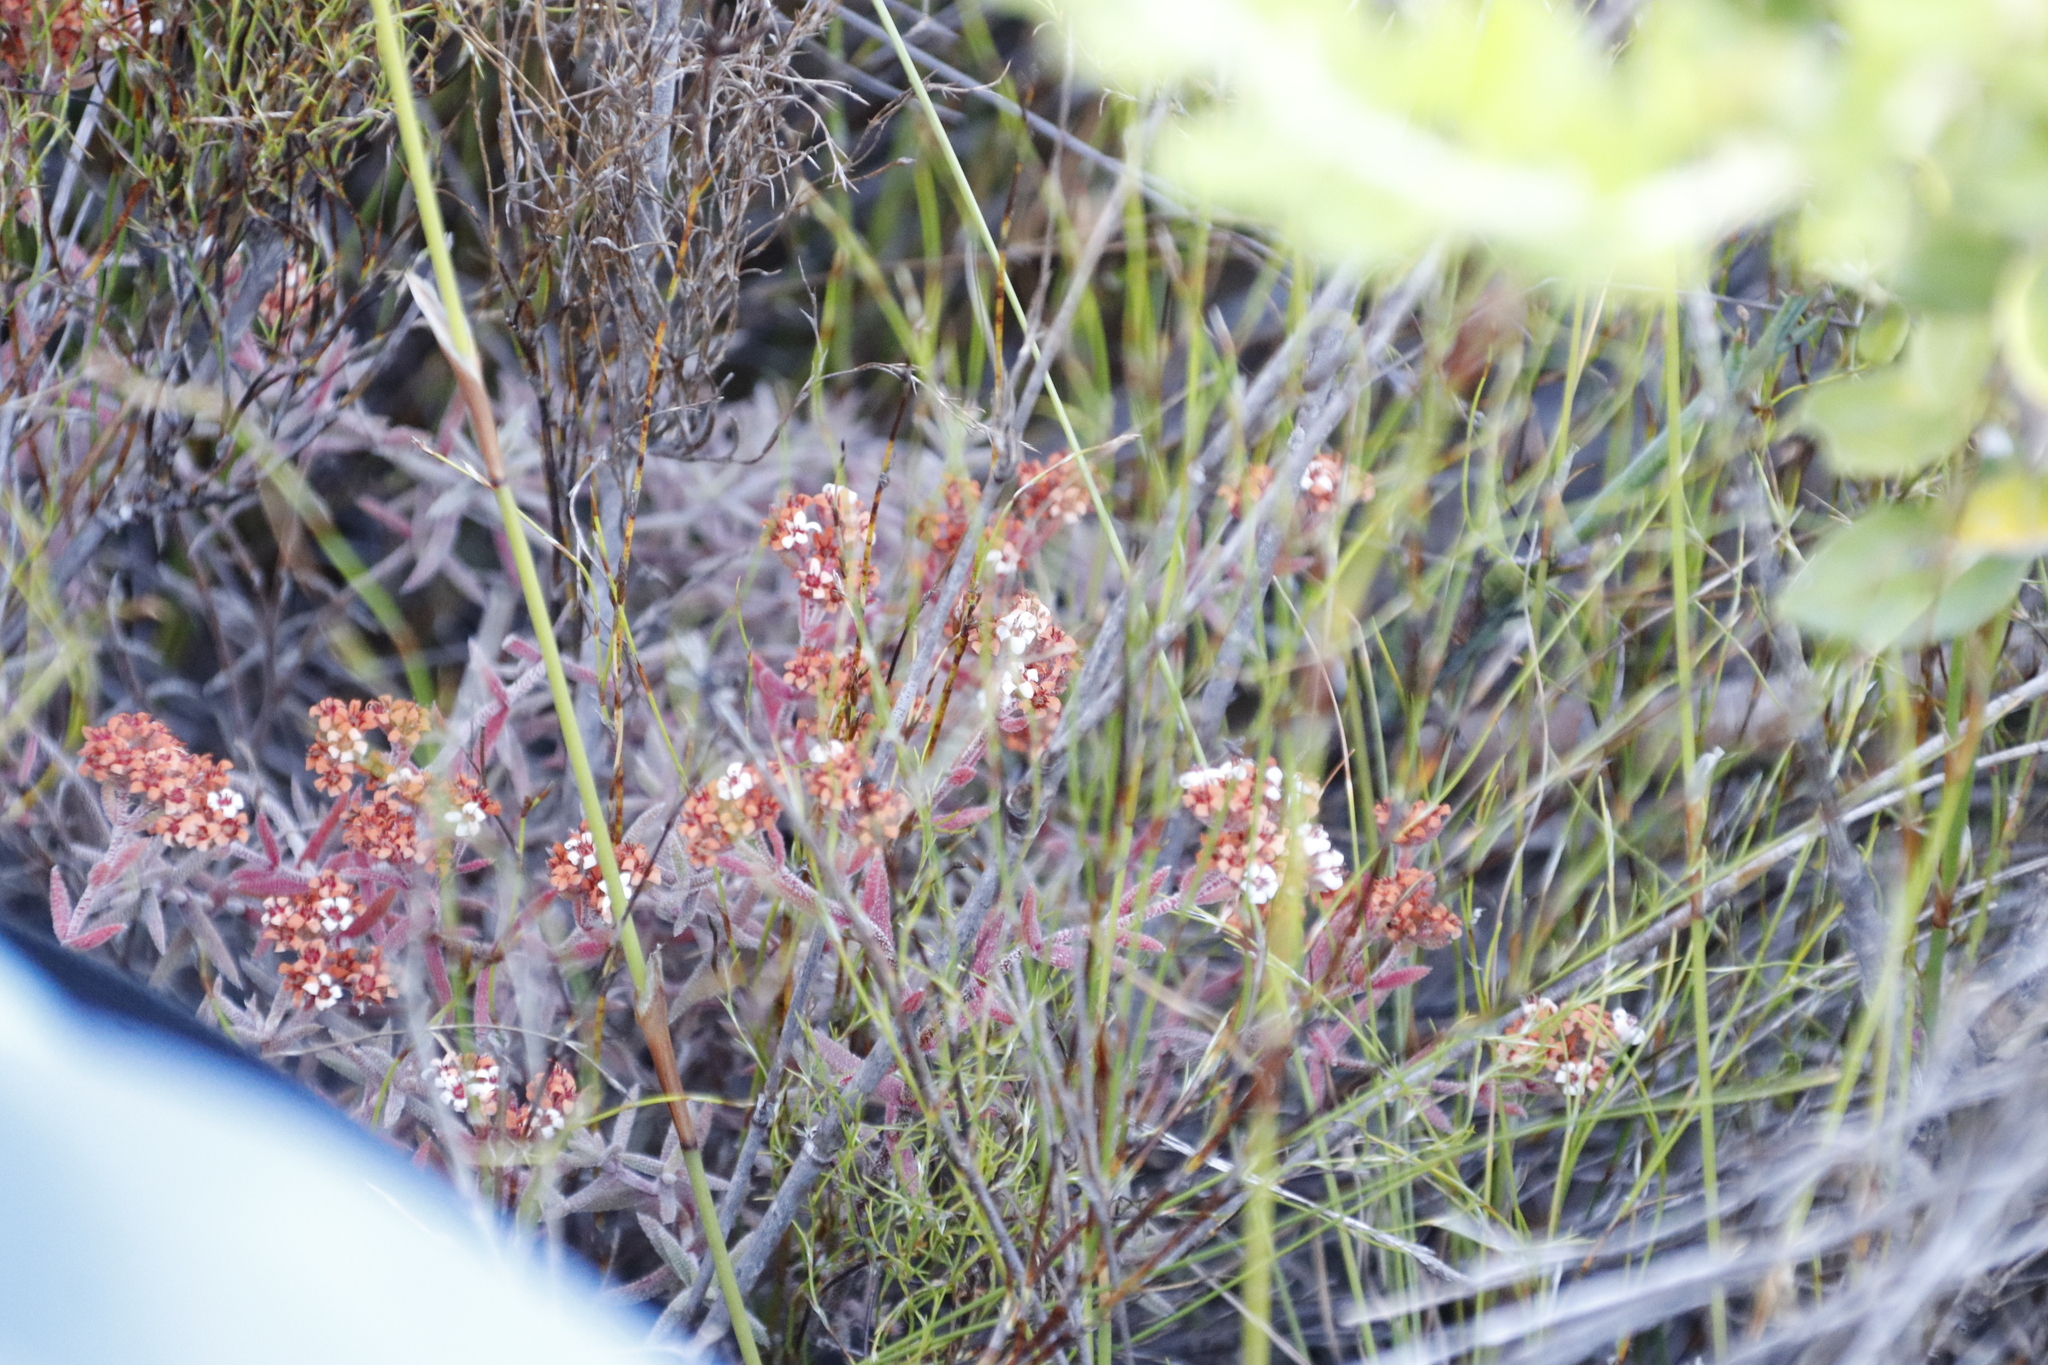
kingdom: Plantae
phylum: Tracheophyta
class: Magnoliopsida
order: Saxifragales
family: Crassulaceae
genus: Crassula
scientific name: Crassula pruinosa
